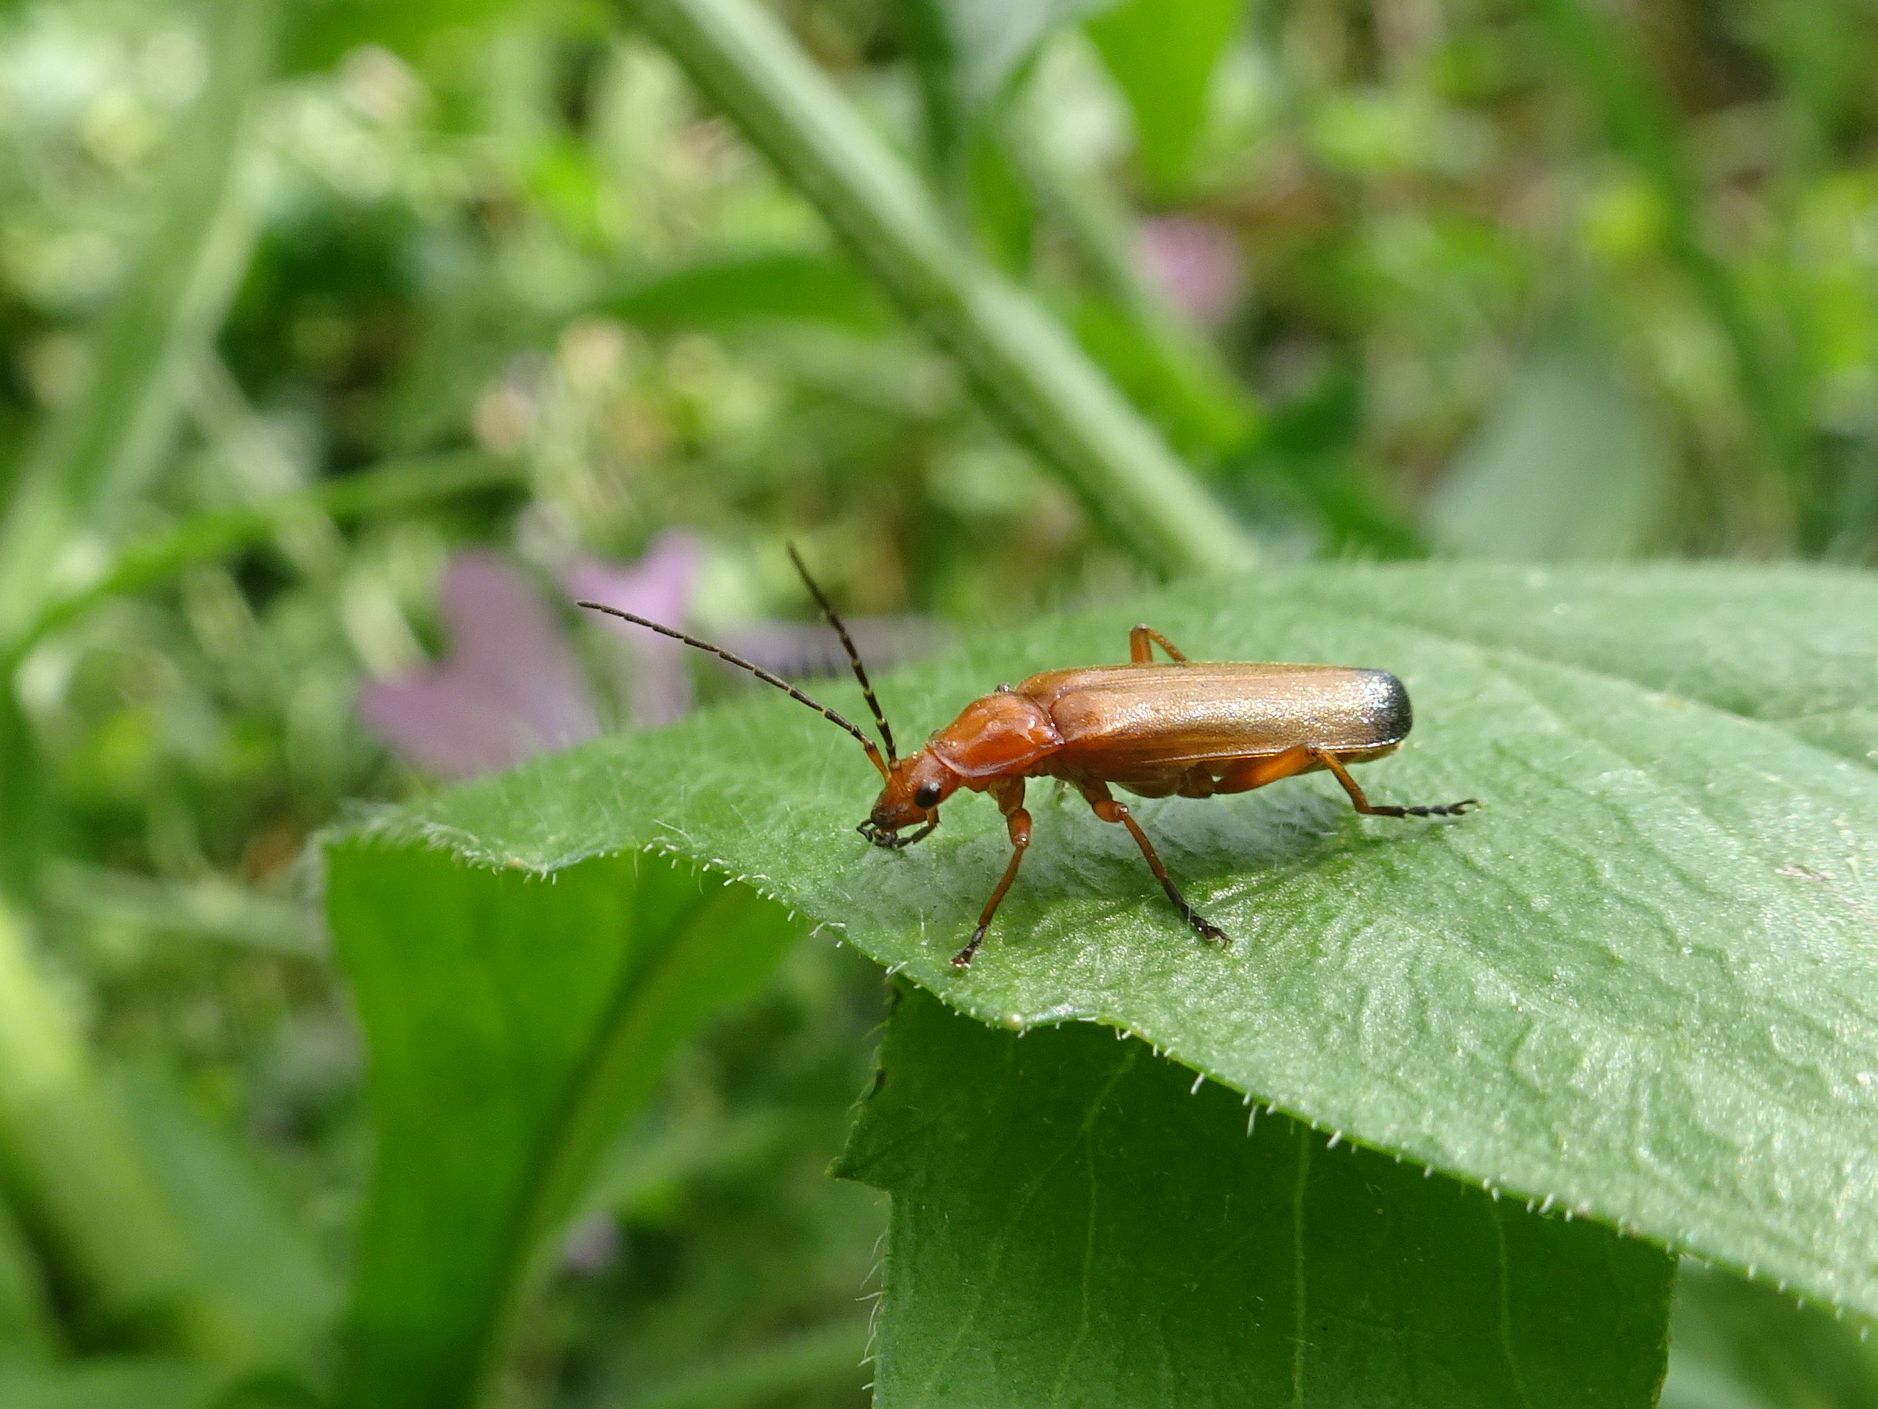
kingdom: Animalia
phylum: Arthropoda
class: Insecta
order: Coleoptera
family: Cantharidae
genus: Rhagonycha
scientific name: Rhagonycha fulva
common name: Common red soldier beetle
